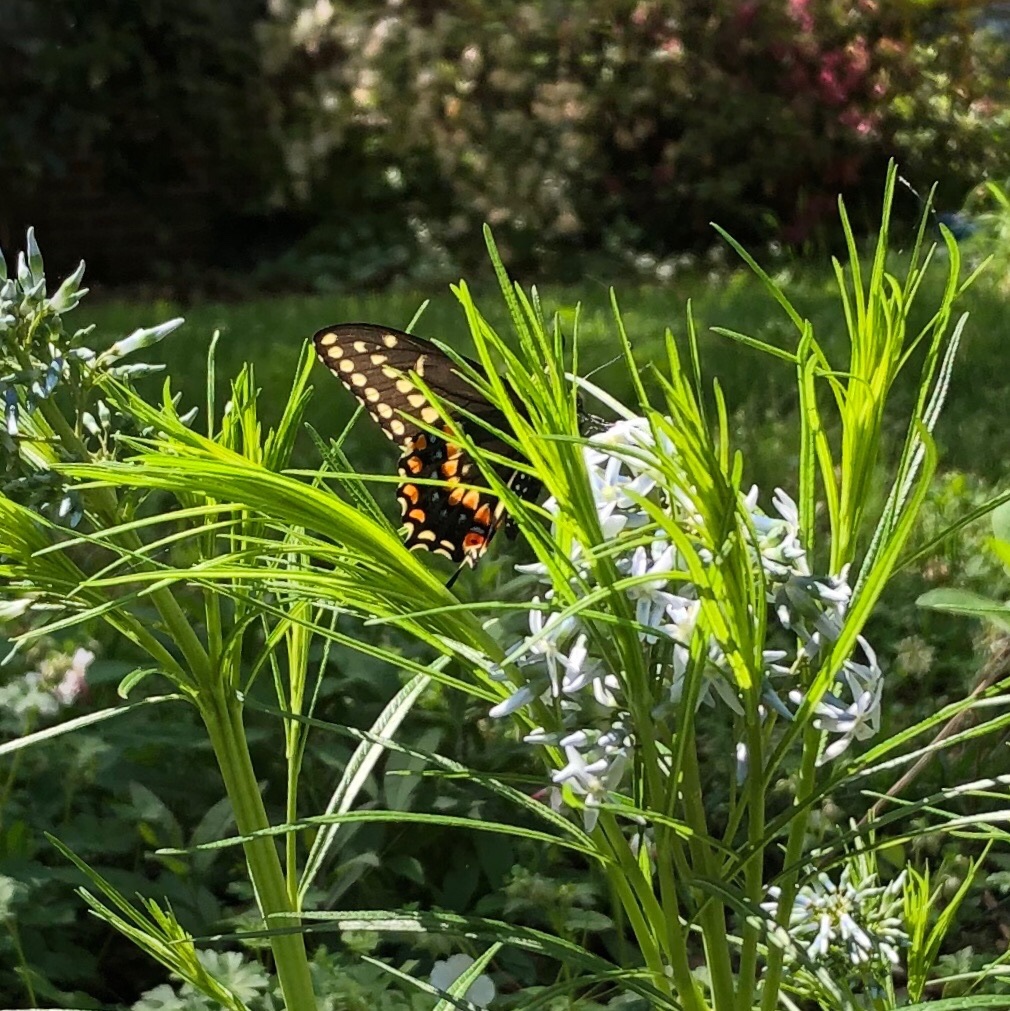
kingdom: Animalia
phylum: Arthropoda
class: Insecta
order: Lepidoptera
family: Papilionidae
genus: Papilio
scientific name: Papilio polyxenes
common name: Black swallowtail
